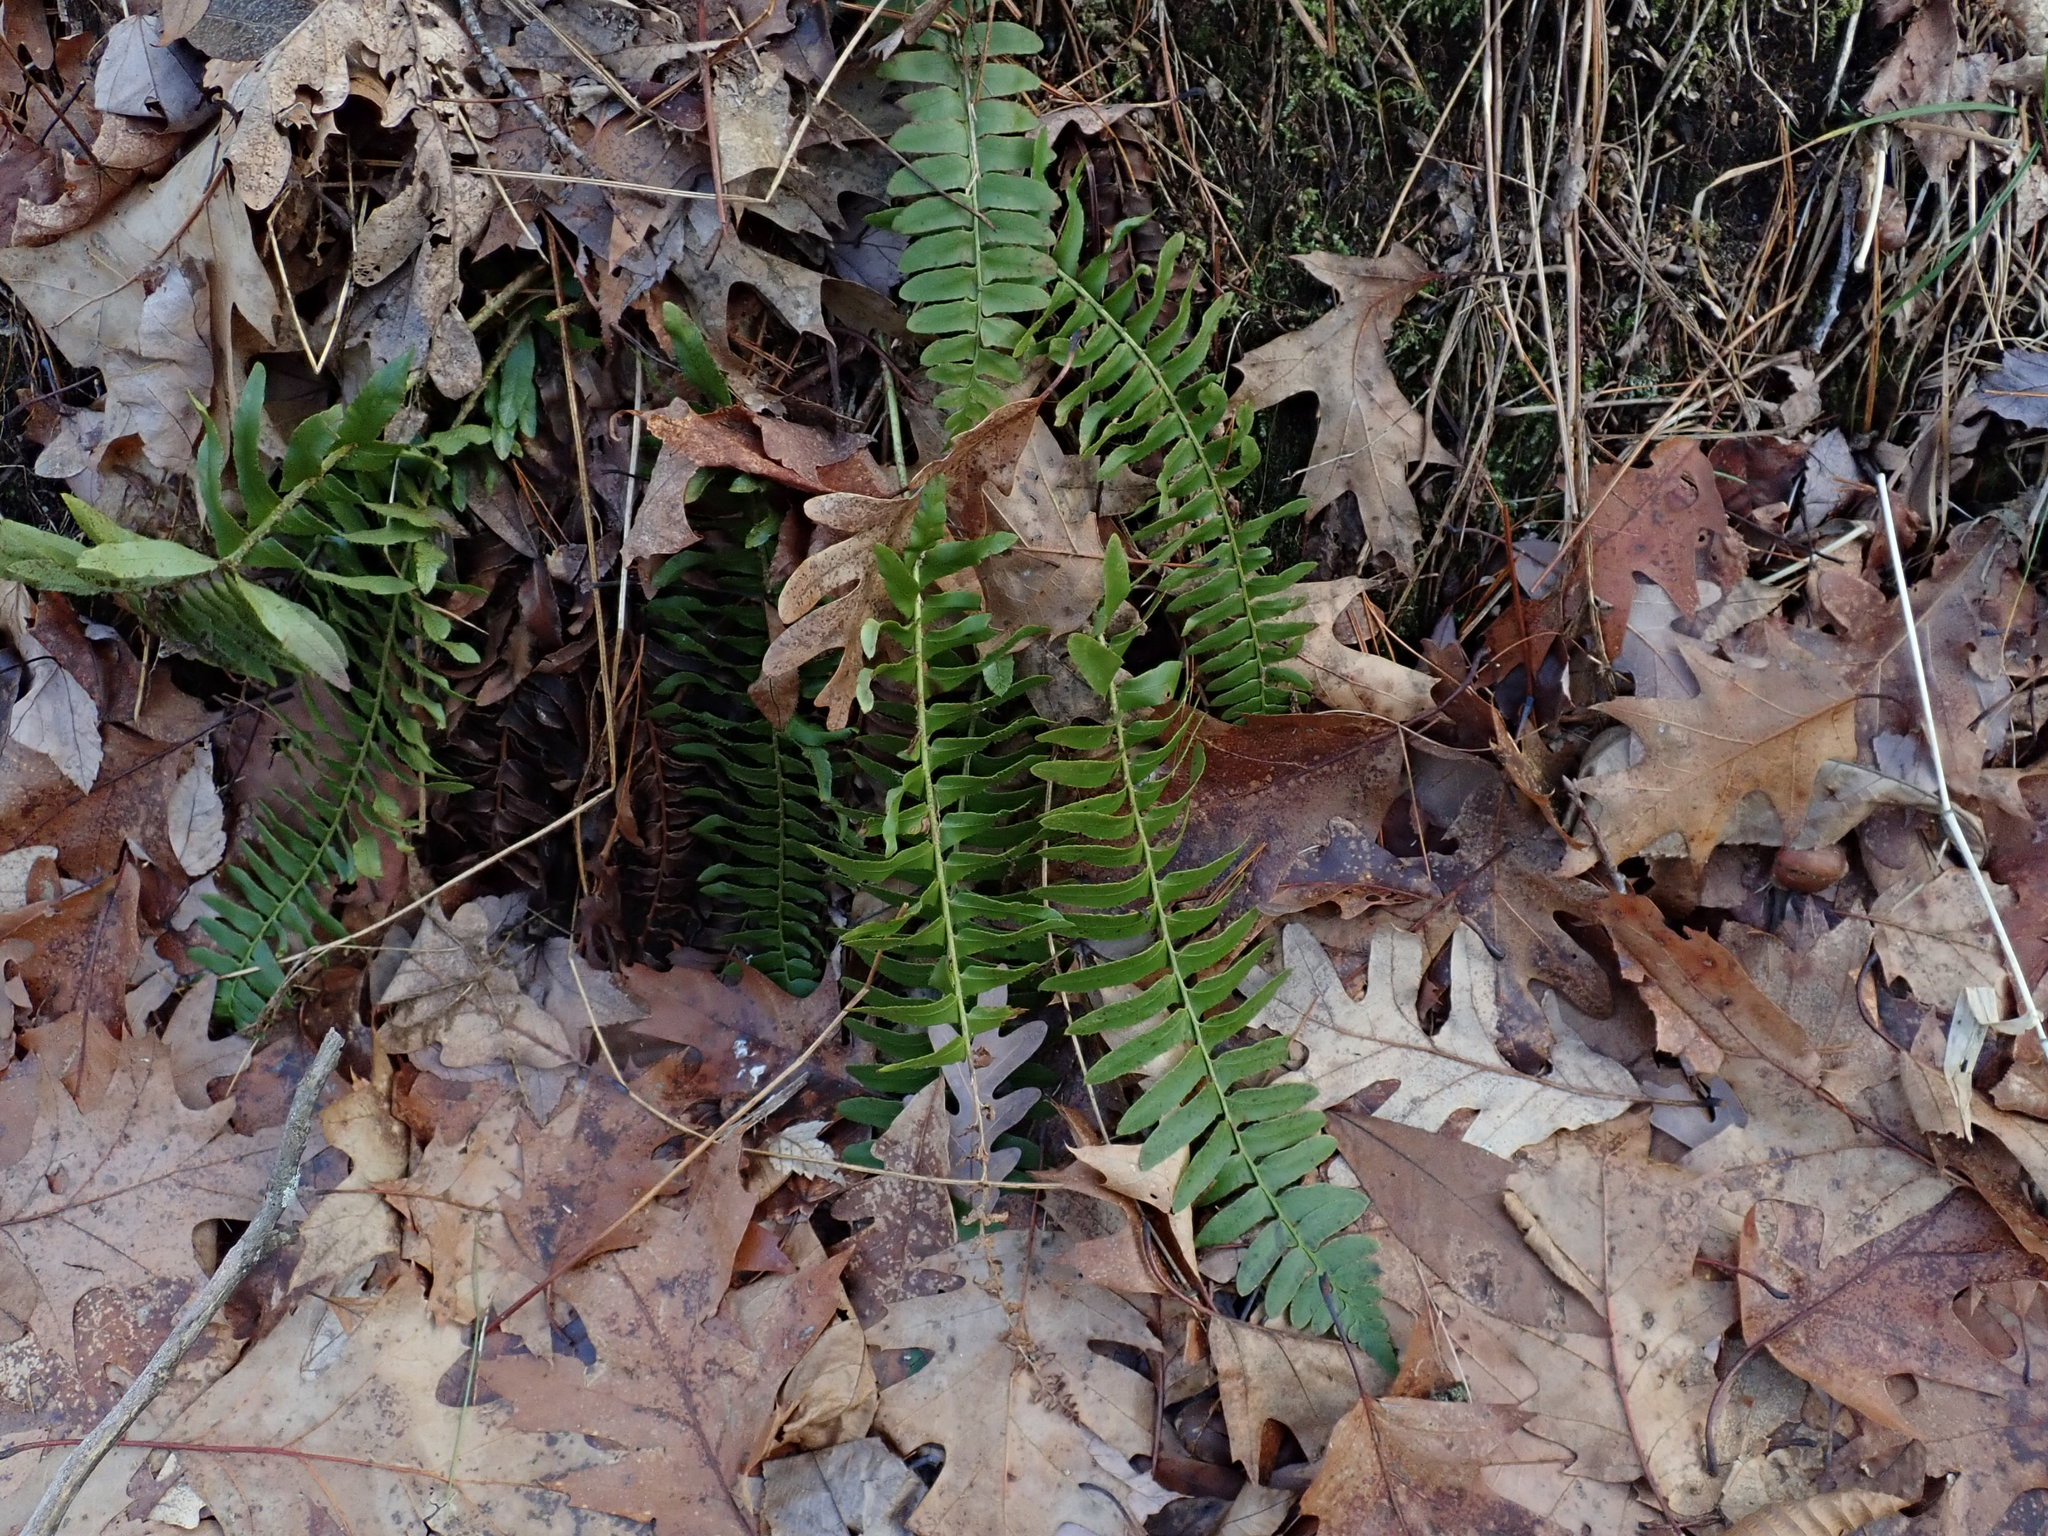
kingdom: Plantae
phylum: Tracheophyta
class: Polypodiopsida
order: Polypodiales
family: Dryopteridaceae
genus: Polystichum
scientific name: Polystichum acrostichoides
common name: Christmas fern
